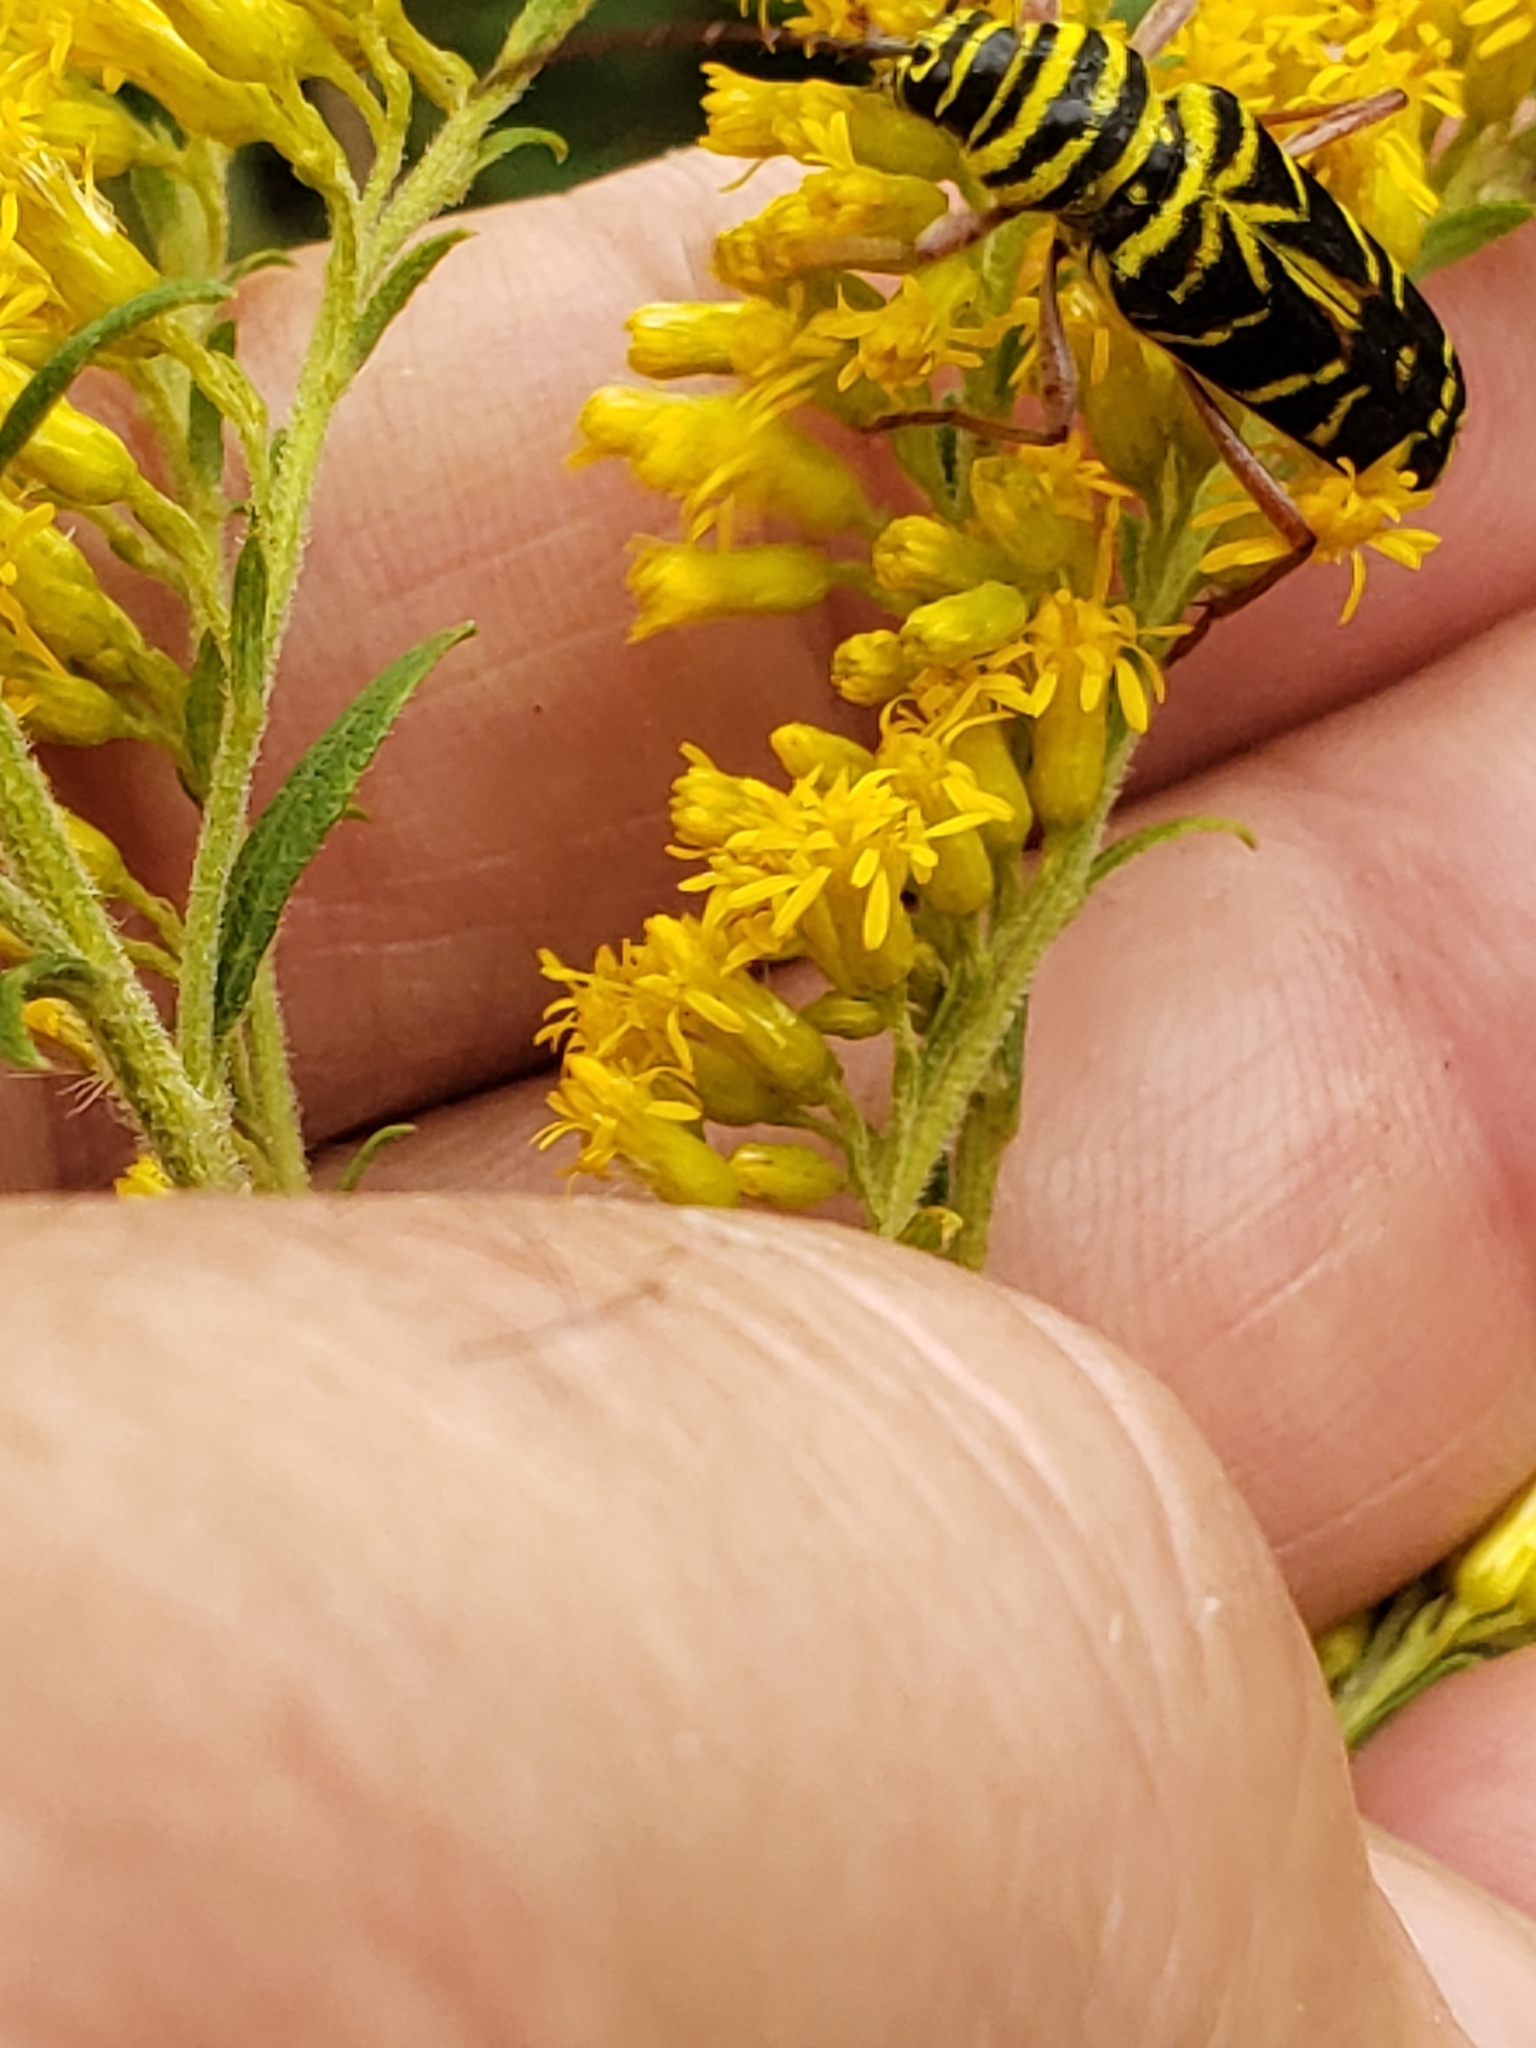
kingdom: Animalia
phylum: Arthropoda
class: Insecta
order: Coleoptera
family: Cerambycidae
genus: Megacyllene
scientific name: Megacyllene robiniae
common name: Locust borer
